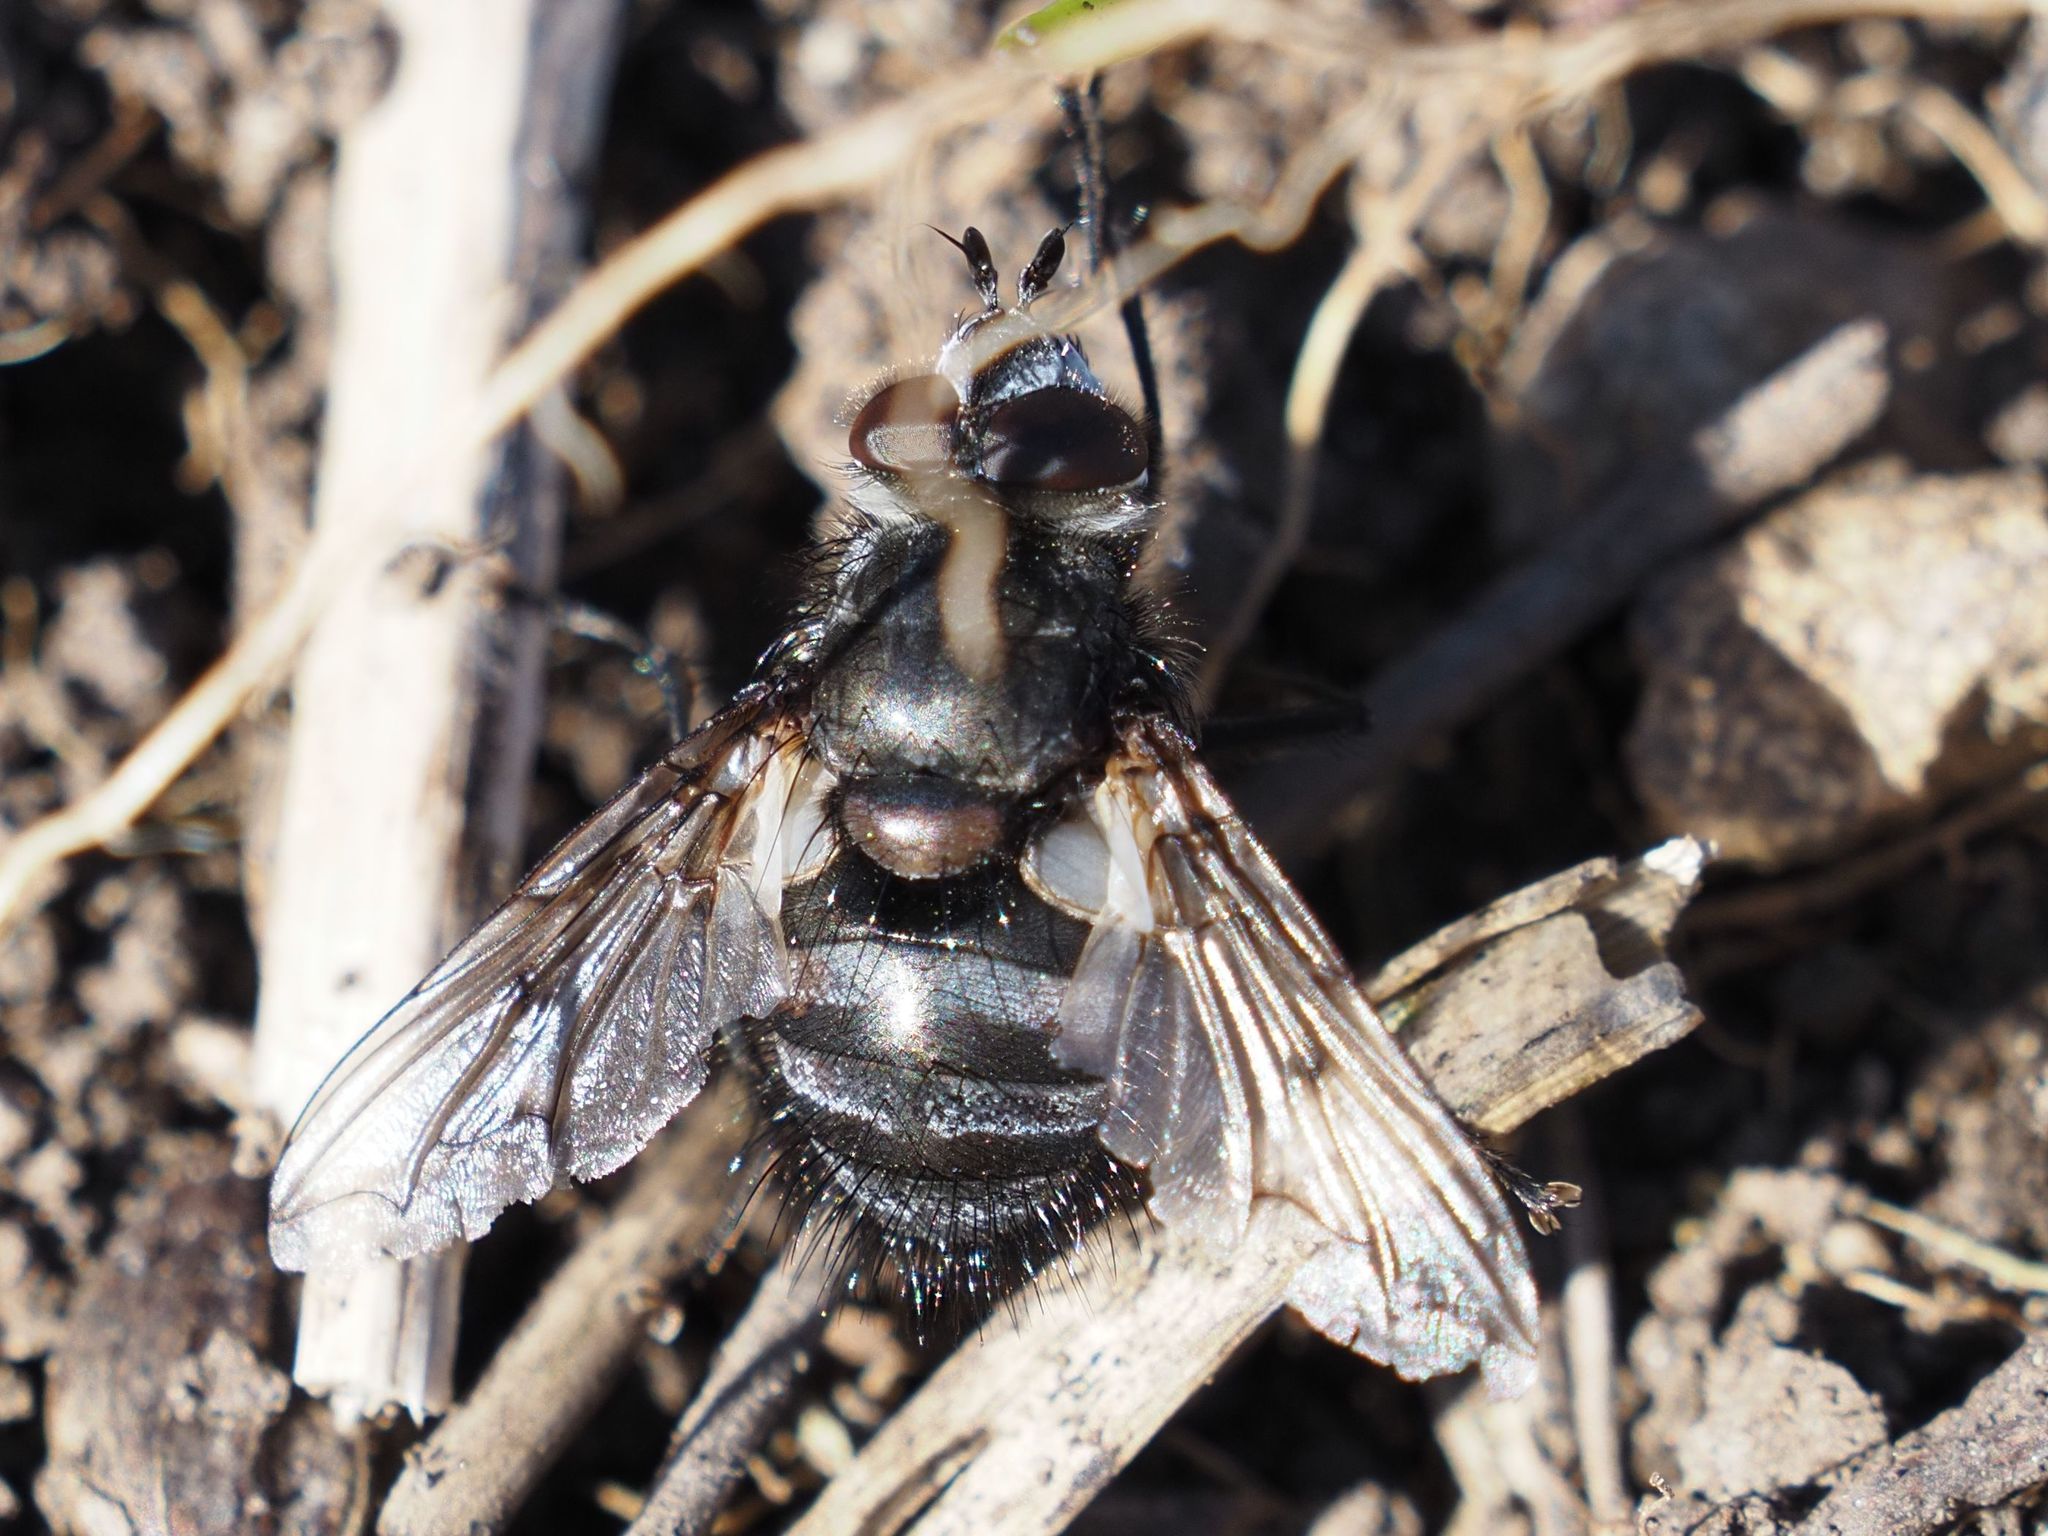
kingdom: Animalia
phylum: Arthropoda
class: Insecta
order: Diptera
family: Tachinidae
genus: Panzeria
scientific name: Panzeria puparum
